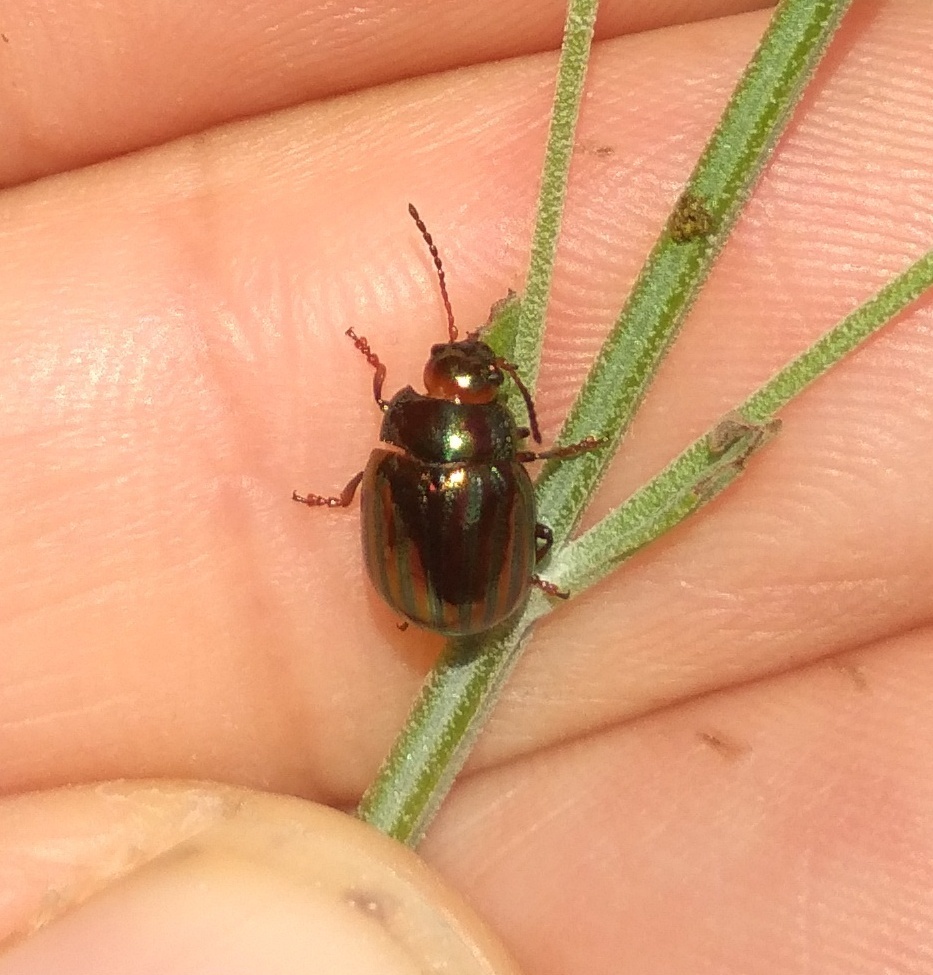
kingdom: Animalia
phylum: Arthropoda
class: Insecta
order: Coleoptera
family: Chrysomelidae
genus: Chrysolina
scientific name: Chrysolina americana
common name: Rosemary beetle
